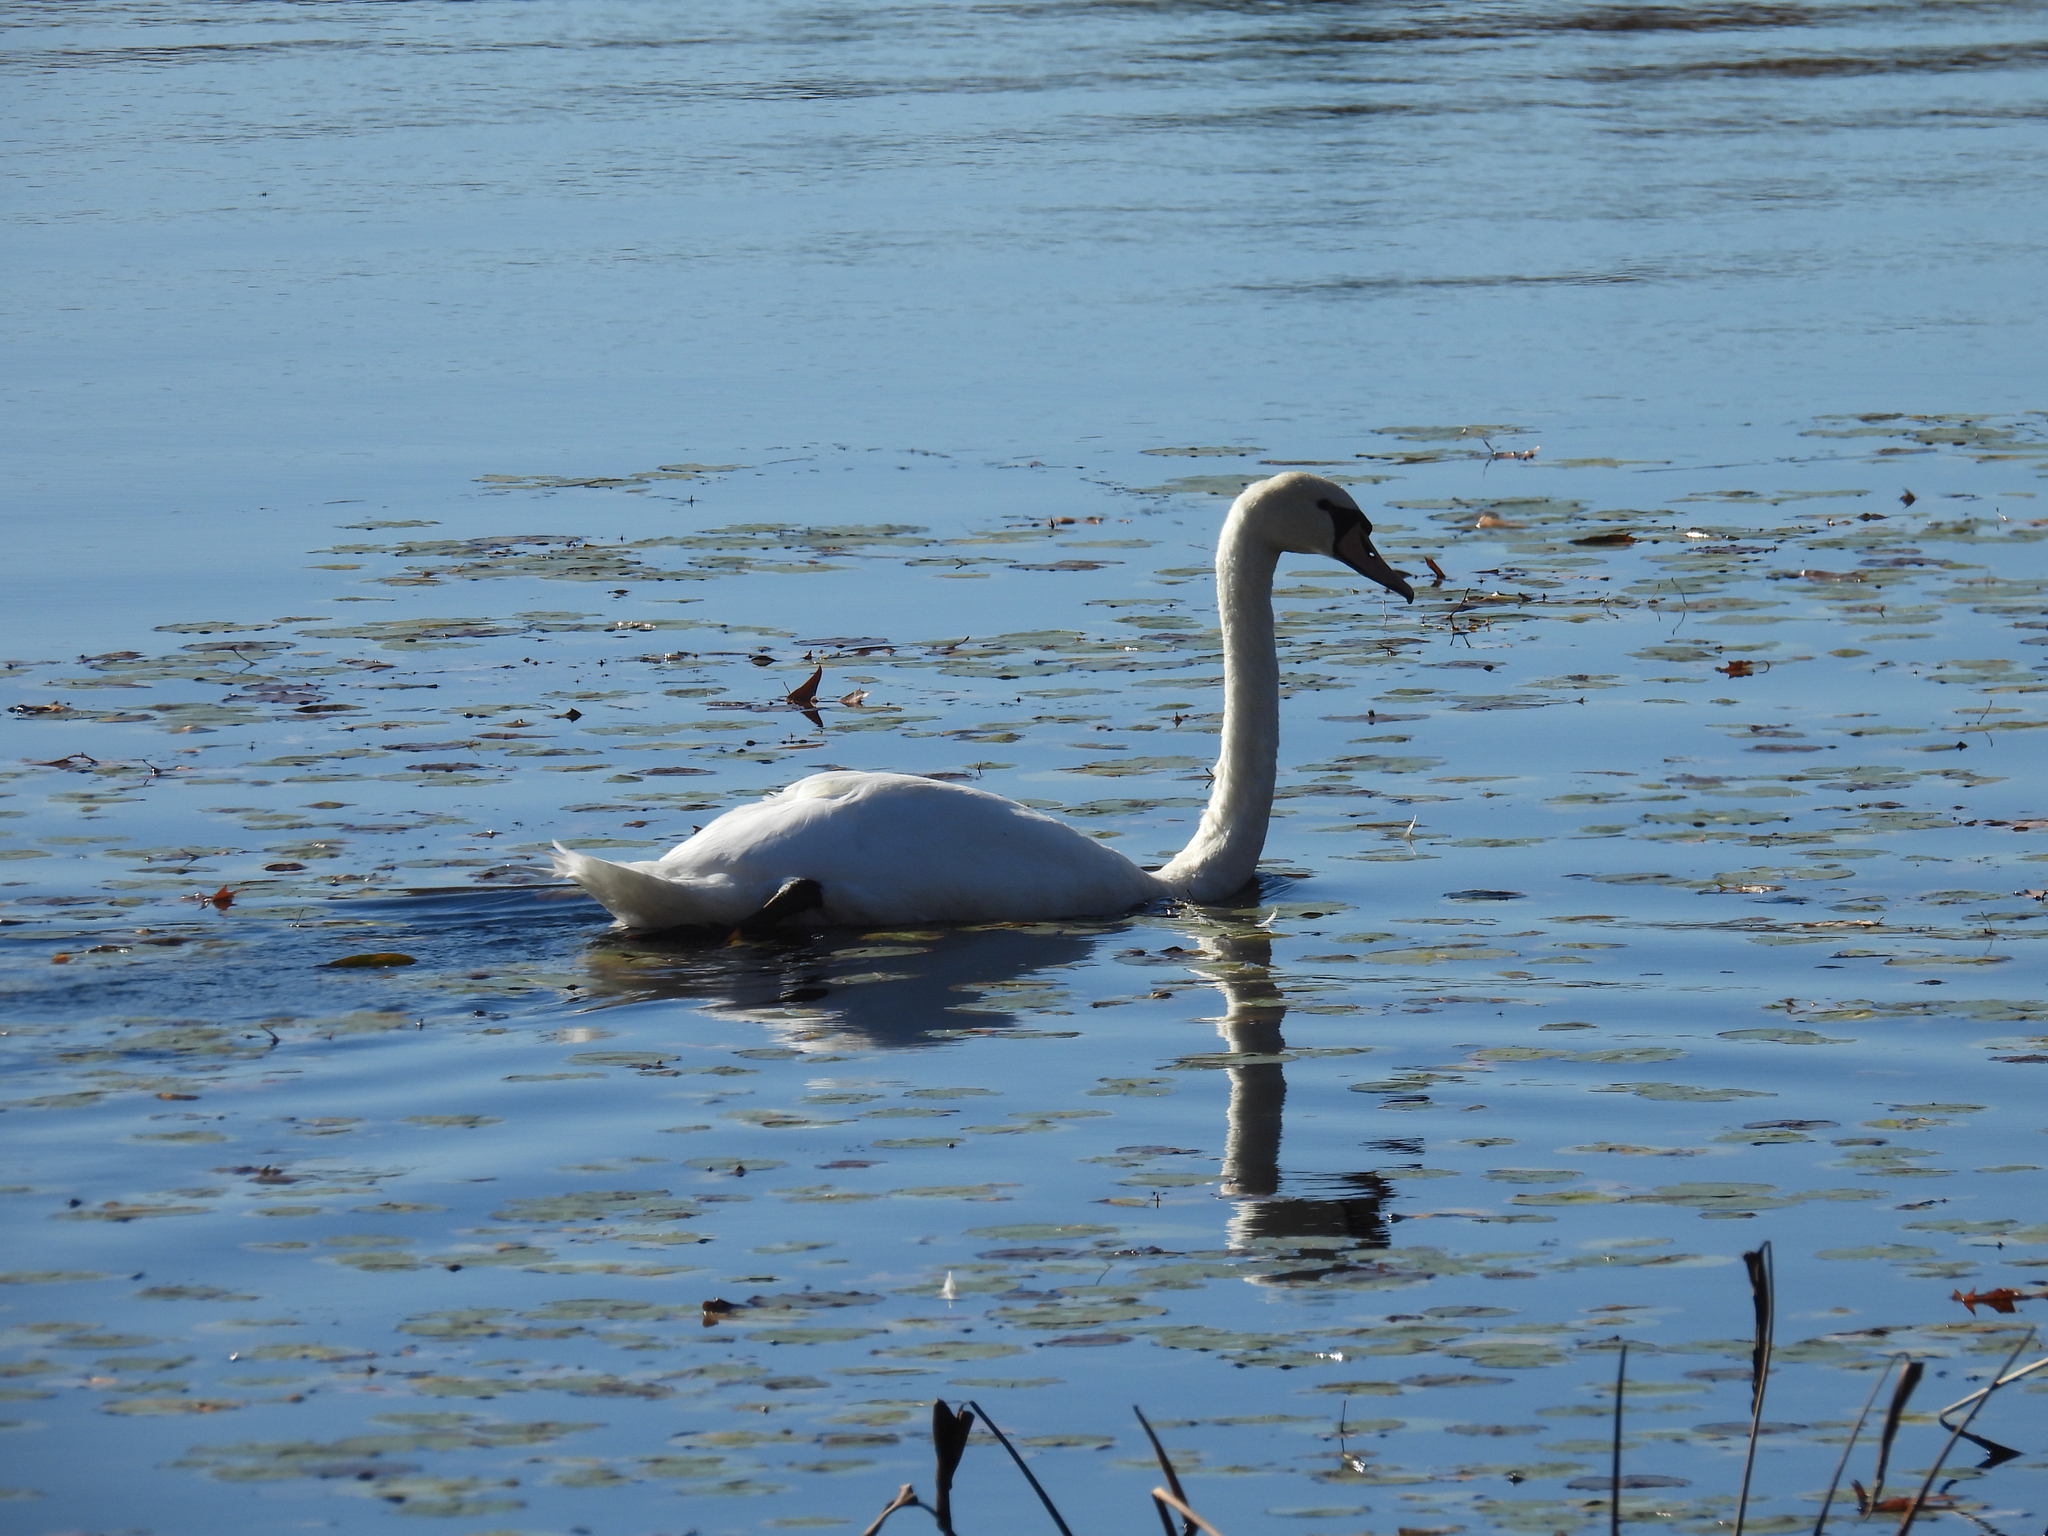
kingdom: Animalia
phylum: Chordata
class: Aves
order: Anseriformes
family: Anatidae
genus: Cygnus
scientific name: Cygnus olor
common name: Mute swan
